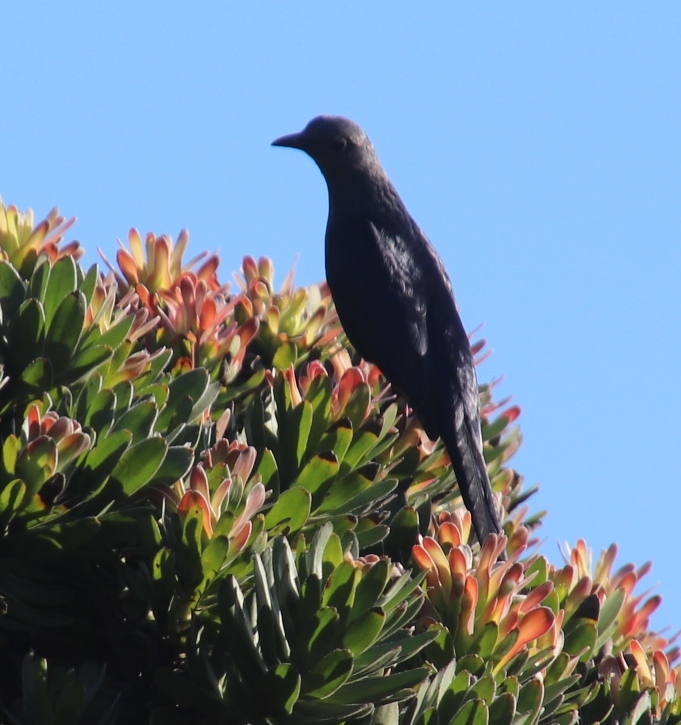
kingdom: Animalia
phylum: Chordata
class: Aves
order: Passeriformes
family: Sturnidae
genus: Onychognathus
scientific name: Onychognathus morio
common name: Red-winged starling
